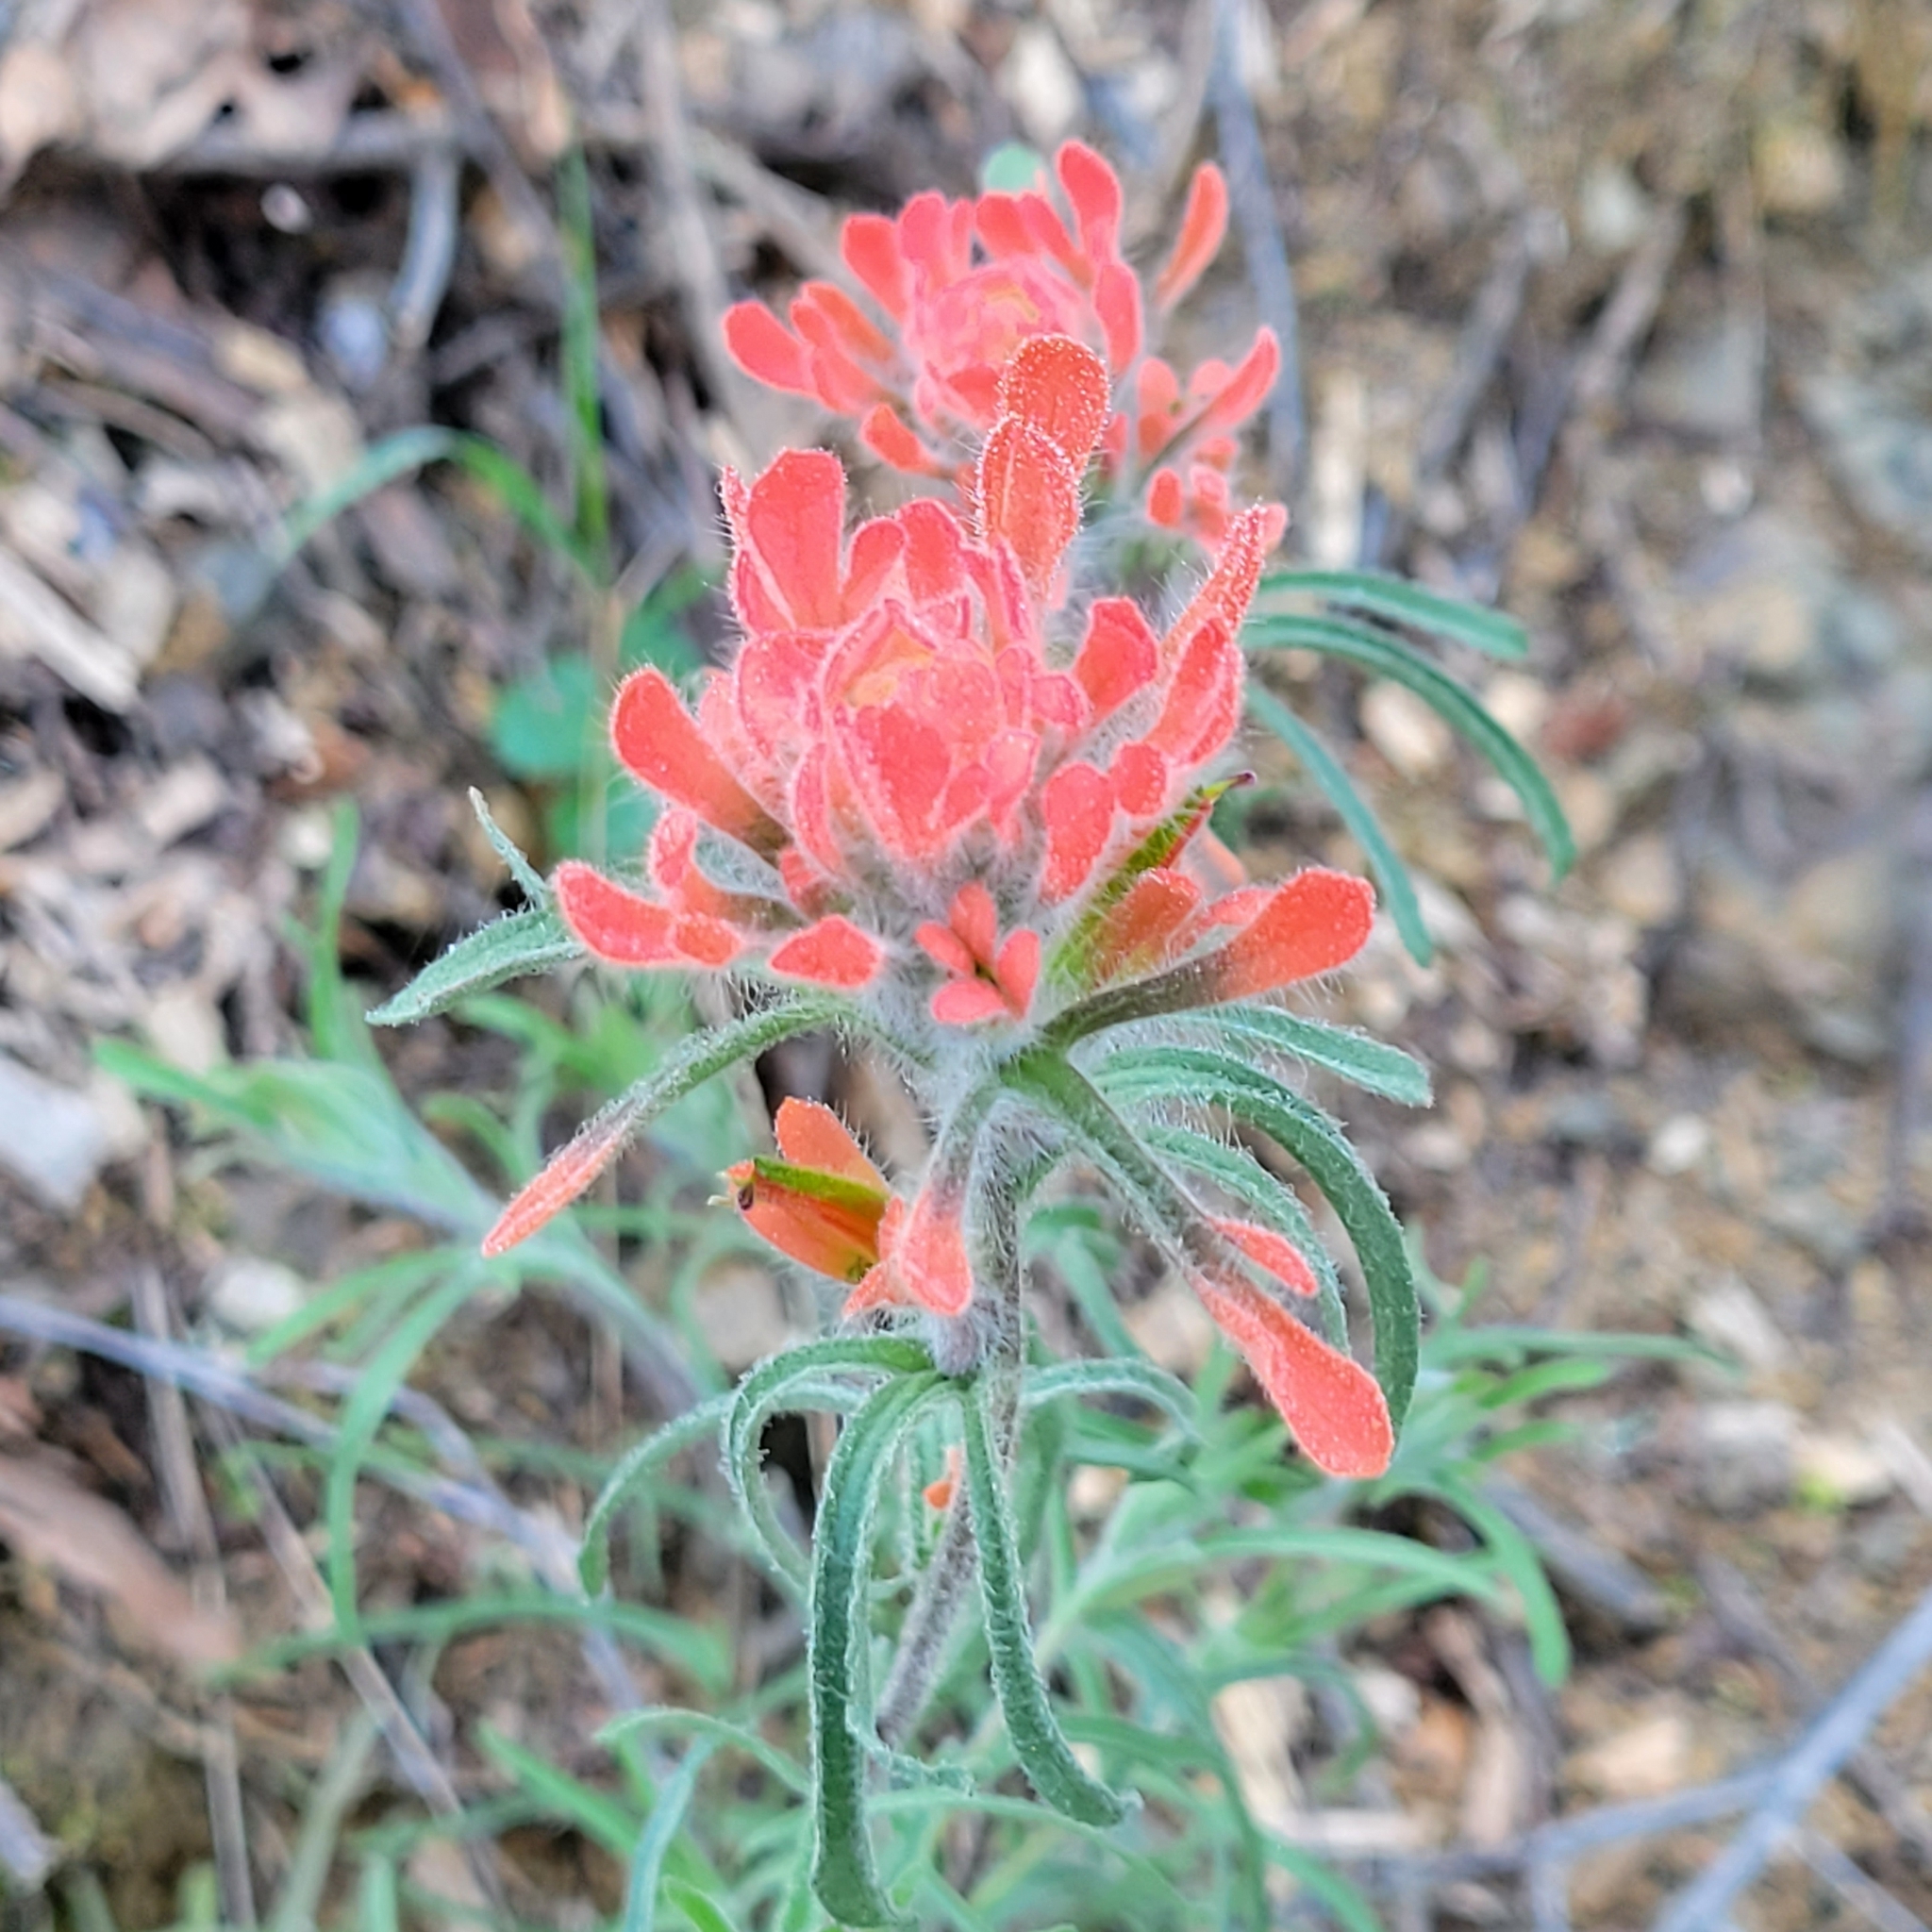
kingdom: Plantae
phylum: Tracheophyta
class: Magnoliopsida
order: Lamiales
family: Orobanchaceae
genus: Castilleja
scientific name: Castilleja foliolosa
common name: Woolly indian paintbrush
